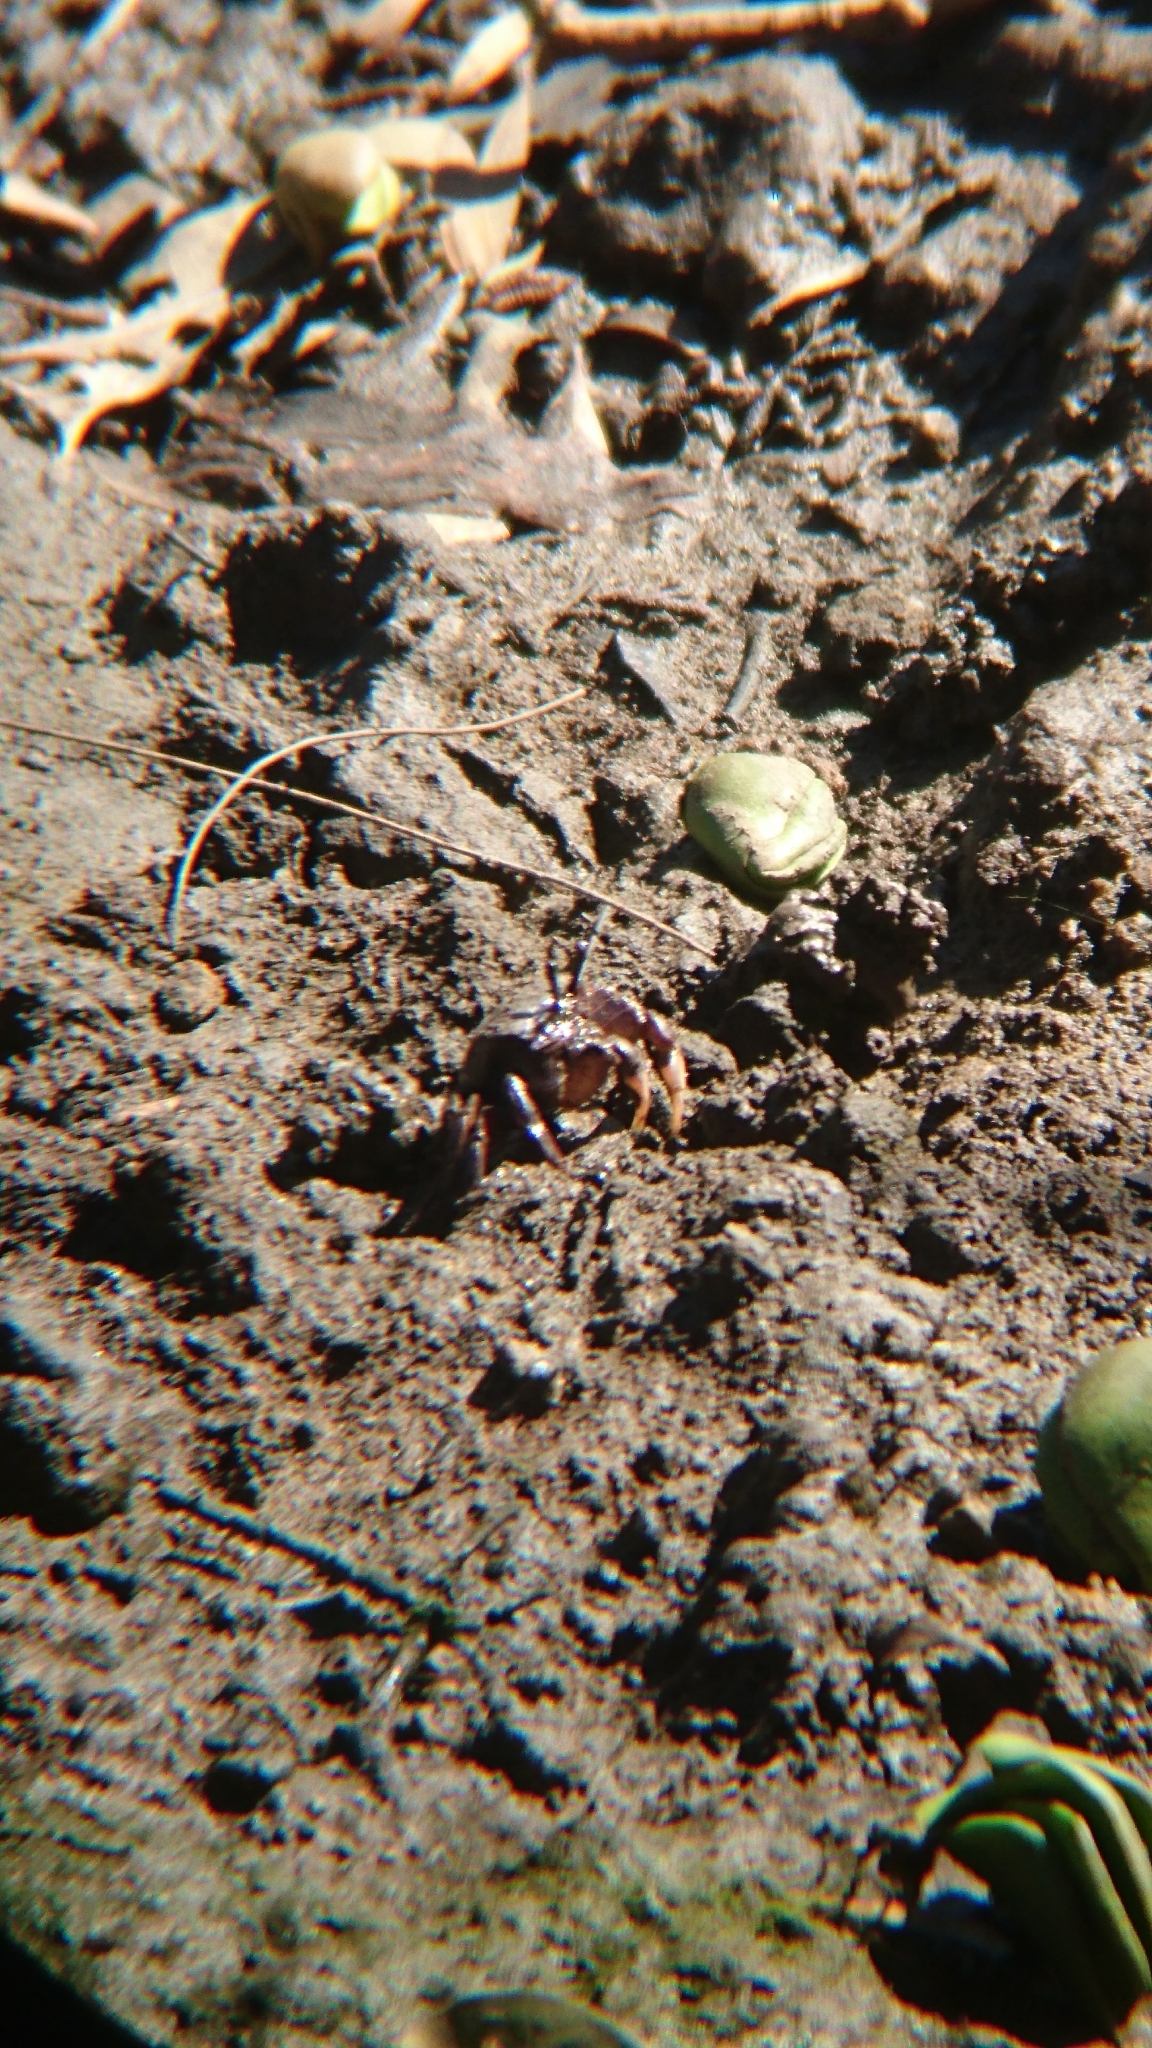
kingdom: Animalia
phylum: Arthropoda
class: Malacostraca
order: Decapoda
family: Heloeciidae
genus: Heloecius
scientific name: Heloecius cordiformis
